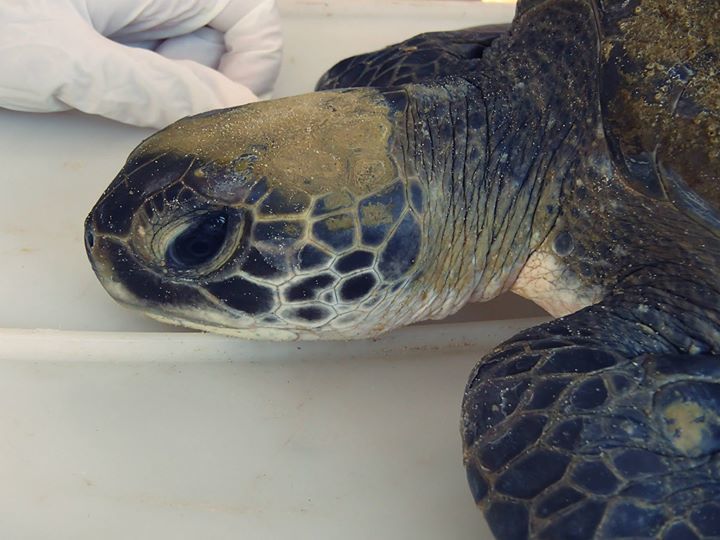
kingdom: Animalia
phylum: Chordata
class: Testudines
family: Cheloniidae
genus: Chelonia
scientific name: Chelonia mydas
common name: Green turtle
